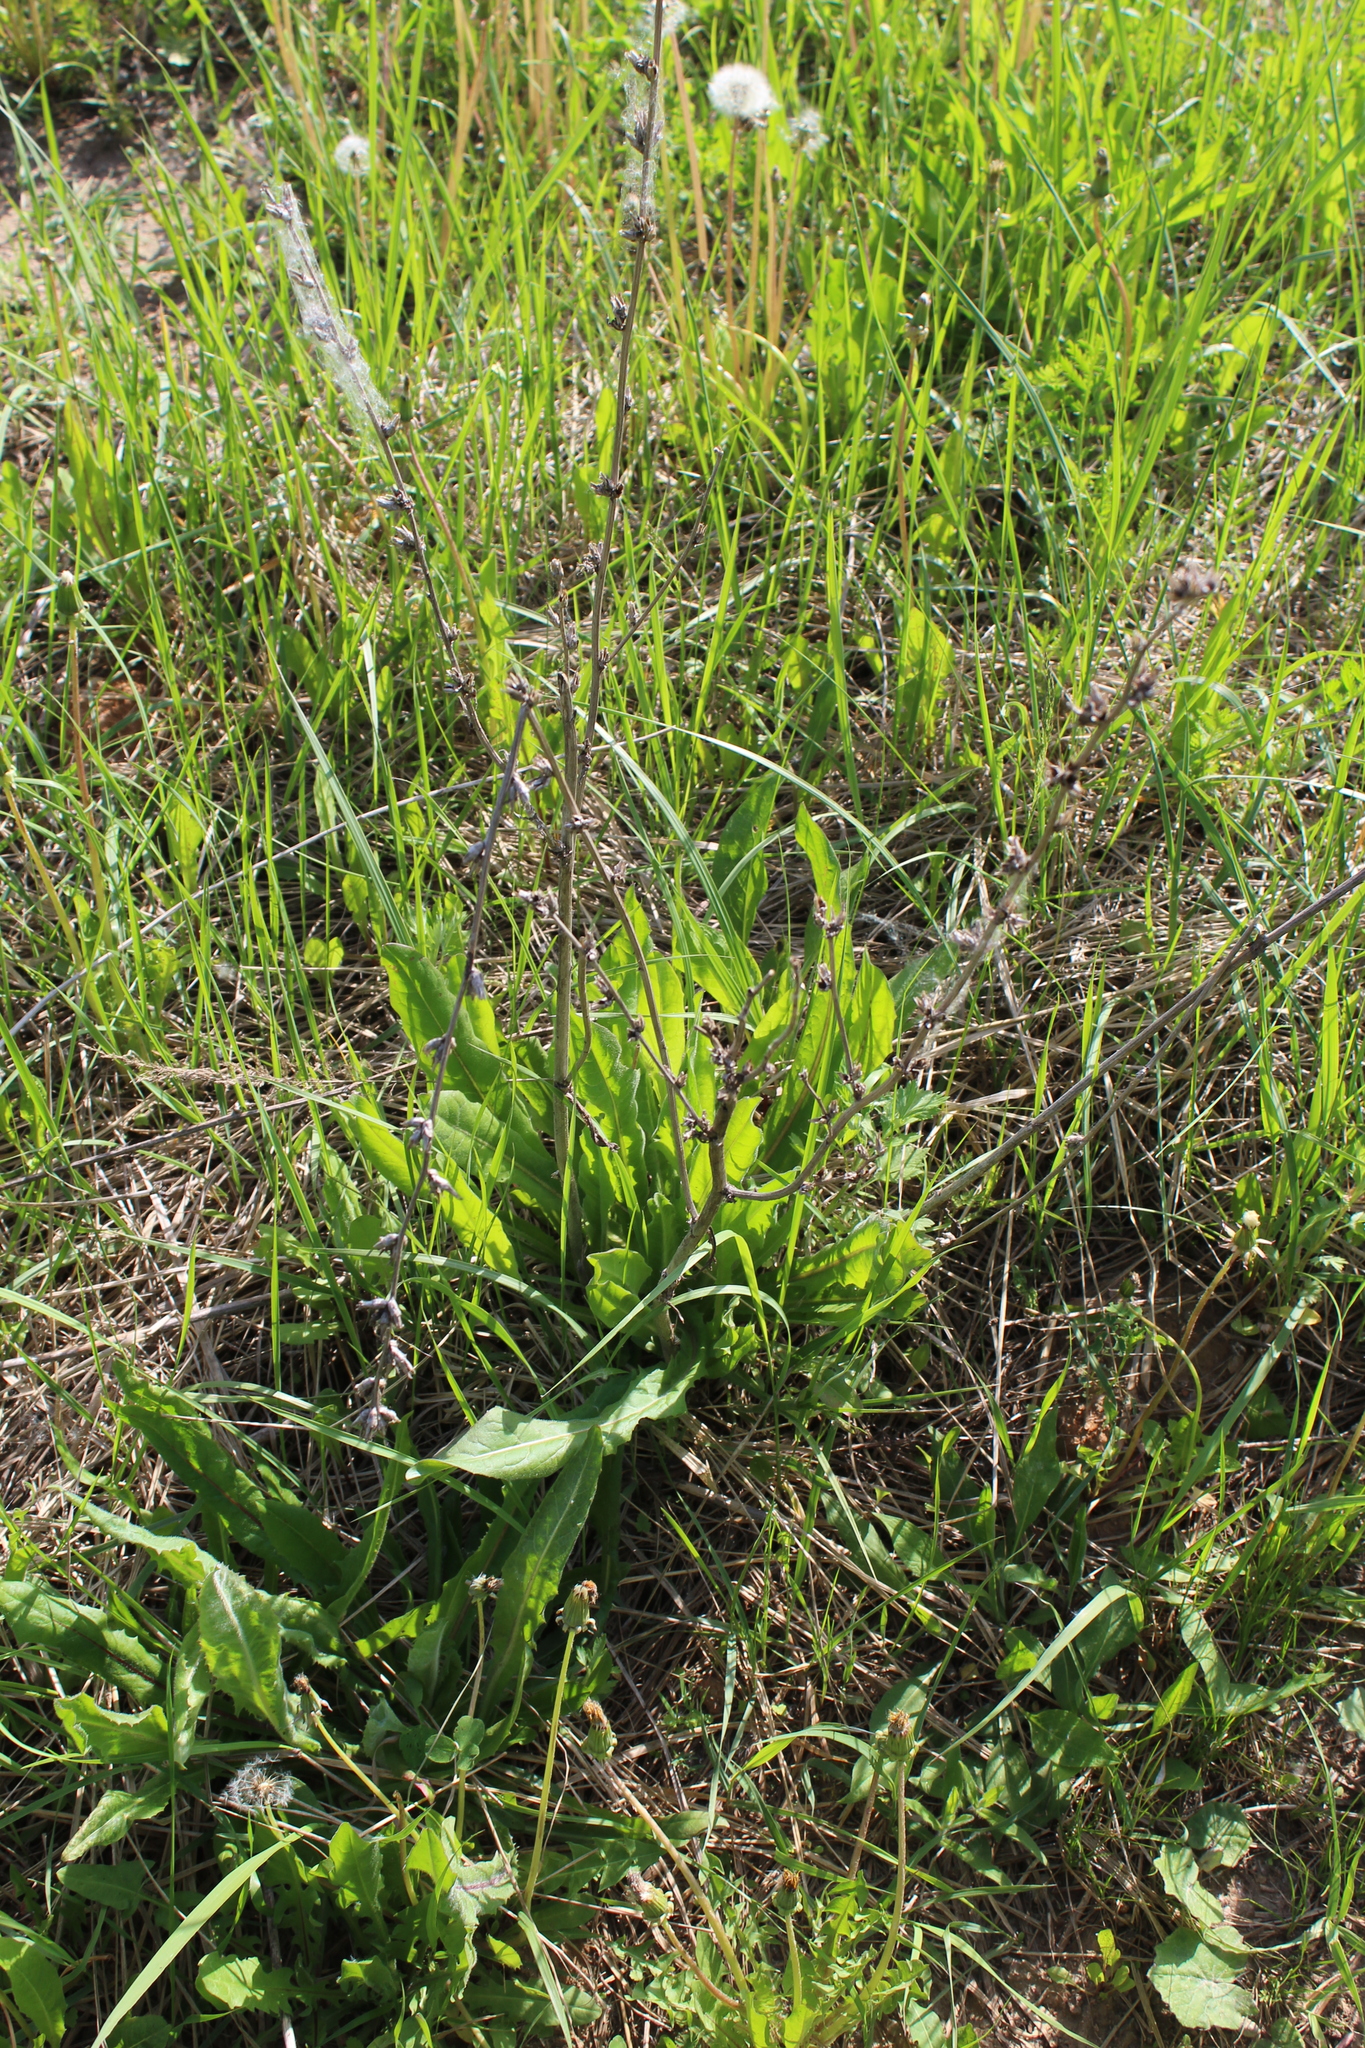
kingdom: Plantae
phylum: Tracheophyta
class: Magnoliopsida
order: Asterales
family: Asteraceae
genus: Cichorium
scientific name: Cichorium intybus
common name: Chicory
